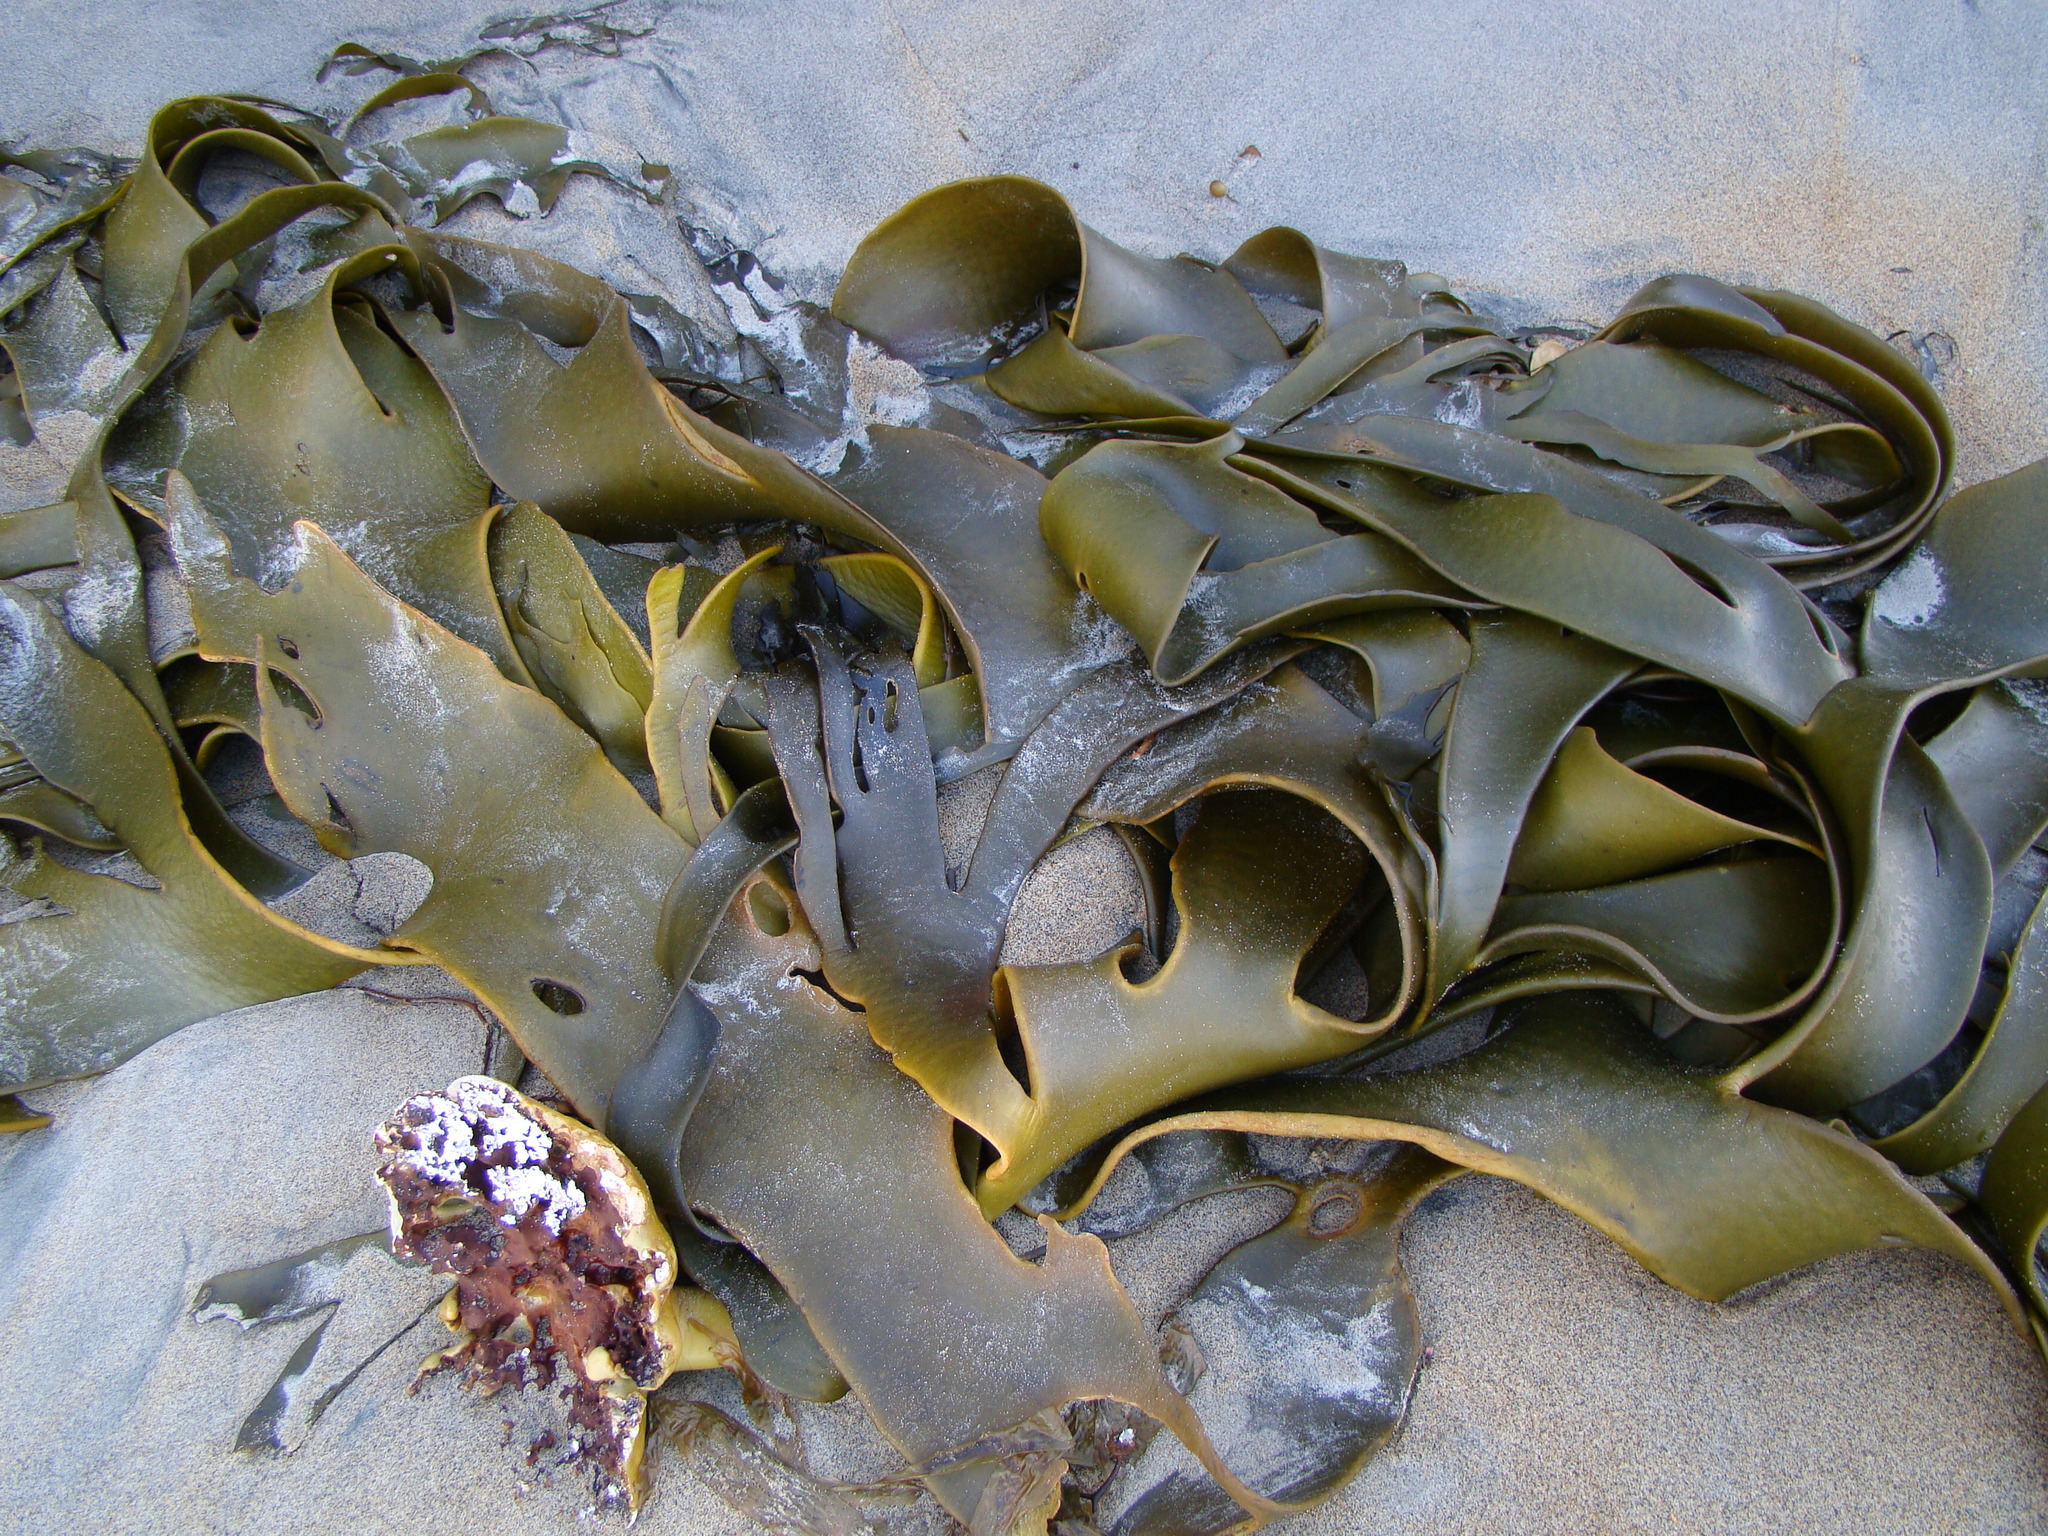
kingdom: Chromista
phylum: Ochrophyta
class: Phaeophyceae
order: Fucales
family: Durvillaeaceae
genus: Durvillaea
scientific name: Durvillaea antarctica
